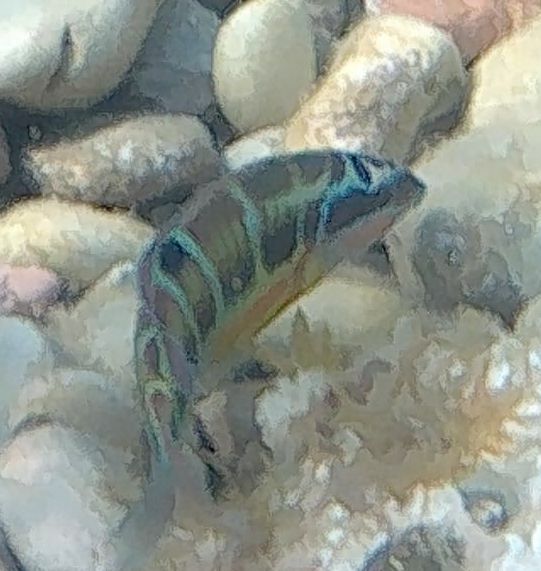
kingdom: Animalia
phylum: Chordata
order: Perciformes
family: Labridae
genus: Thalassoma
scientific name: Thalassoma pavo
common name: Ornate wrasse
